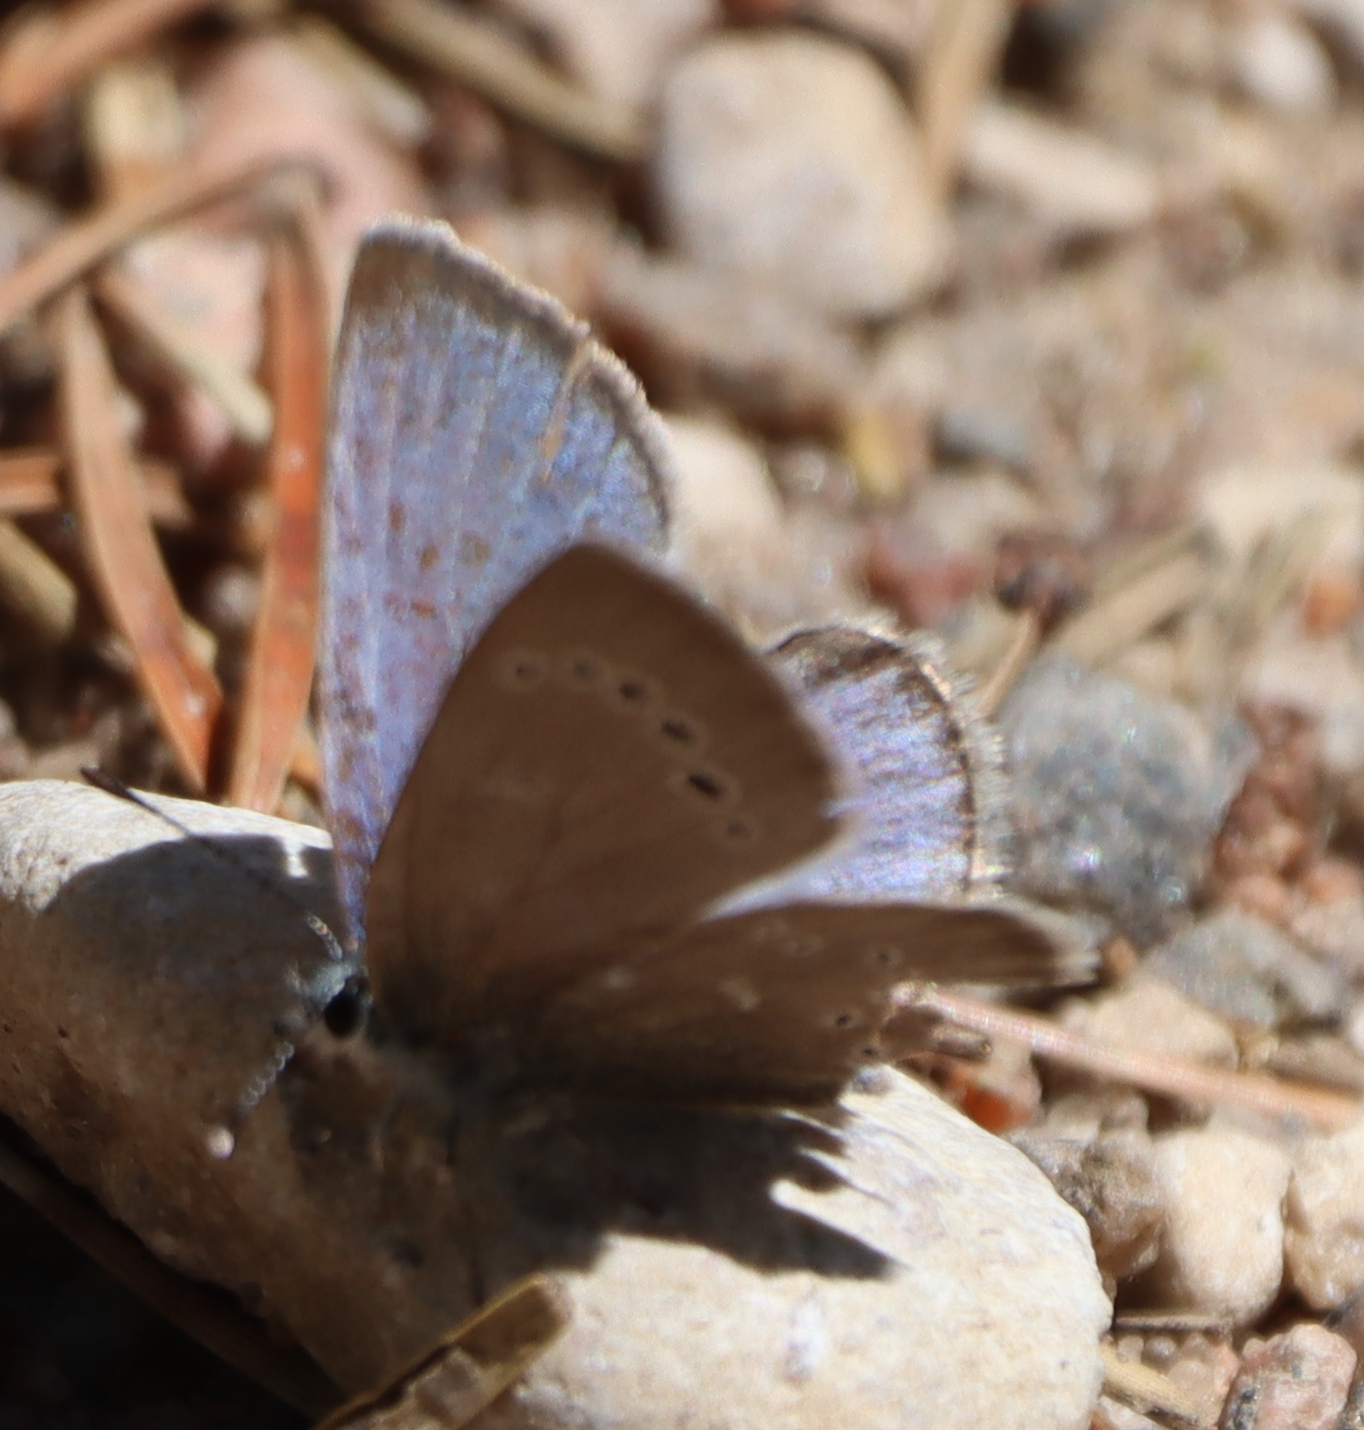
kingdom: Animalia
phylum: Arthropoda
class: Insecta
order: Lepidoptera
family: Lycaenidae
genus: Glaucopsyche
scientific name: Glaucopsyche lygdamus
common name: Silvery blue
